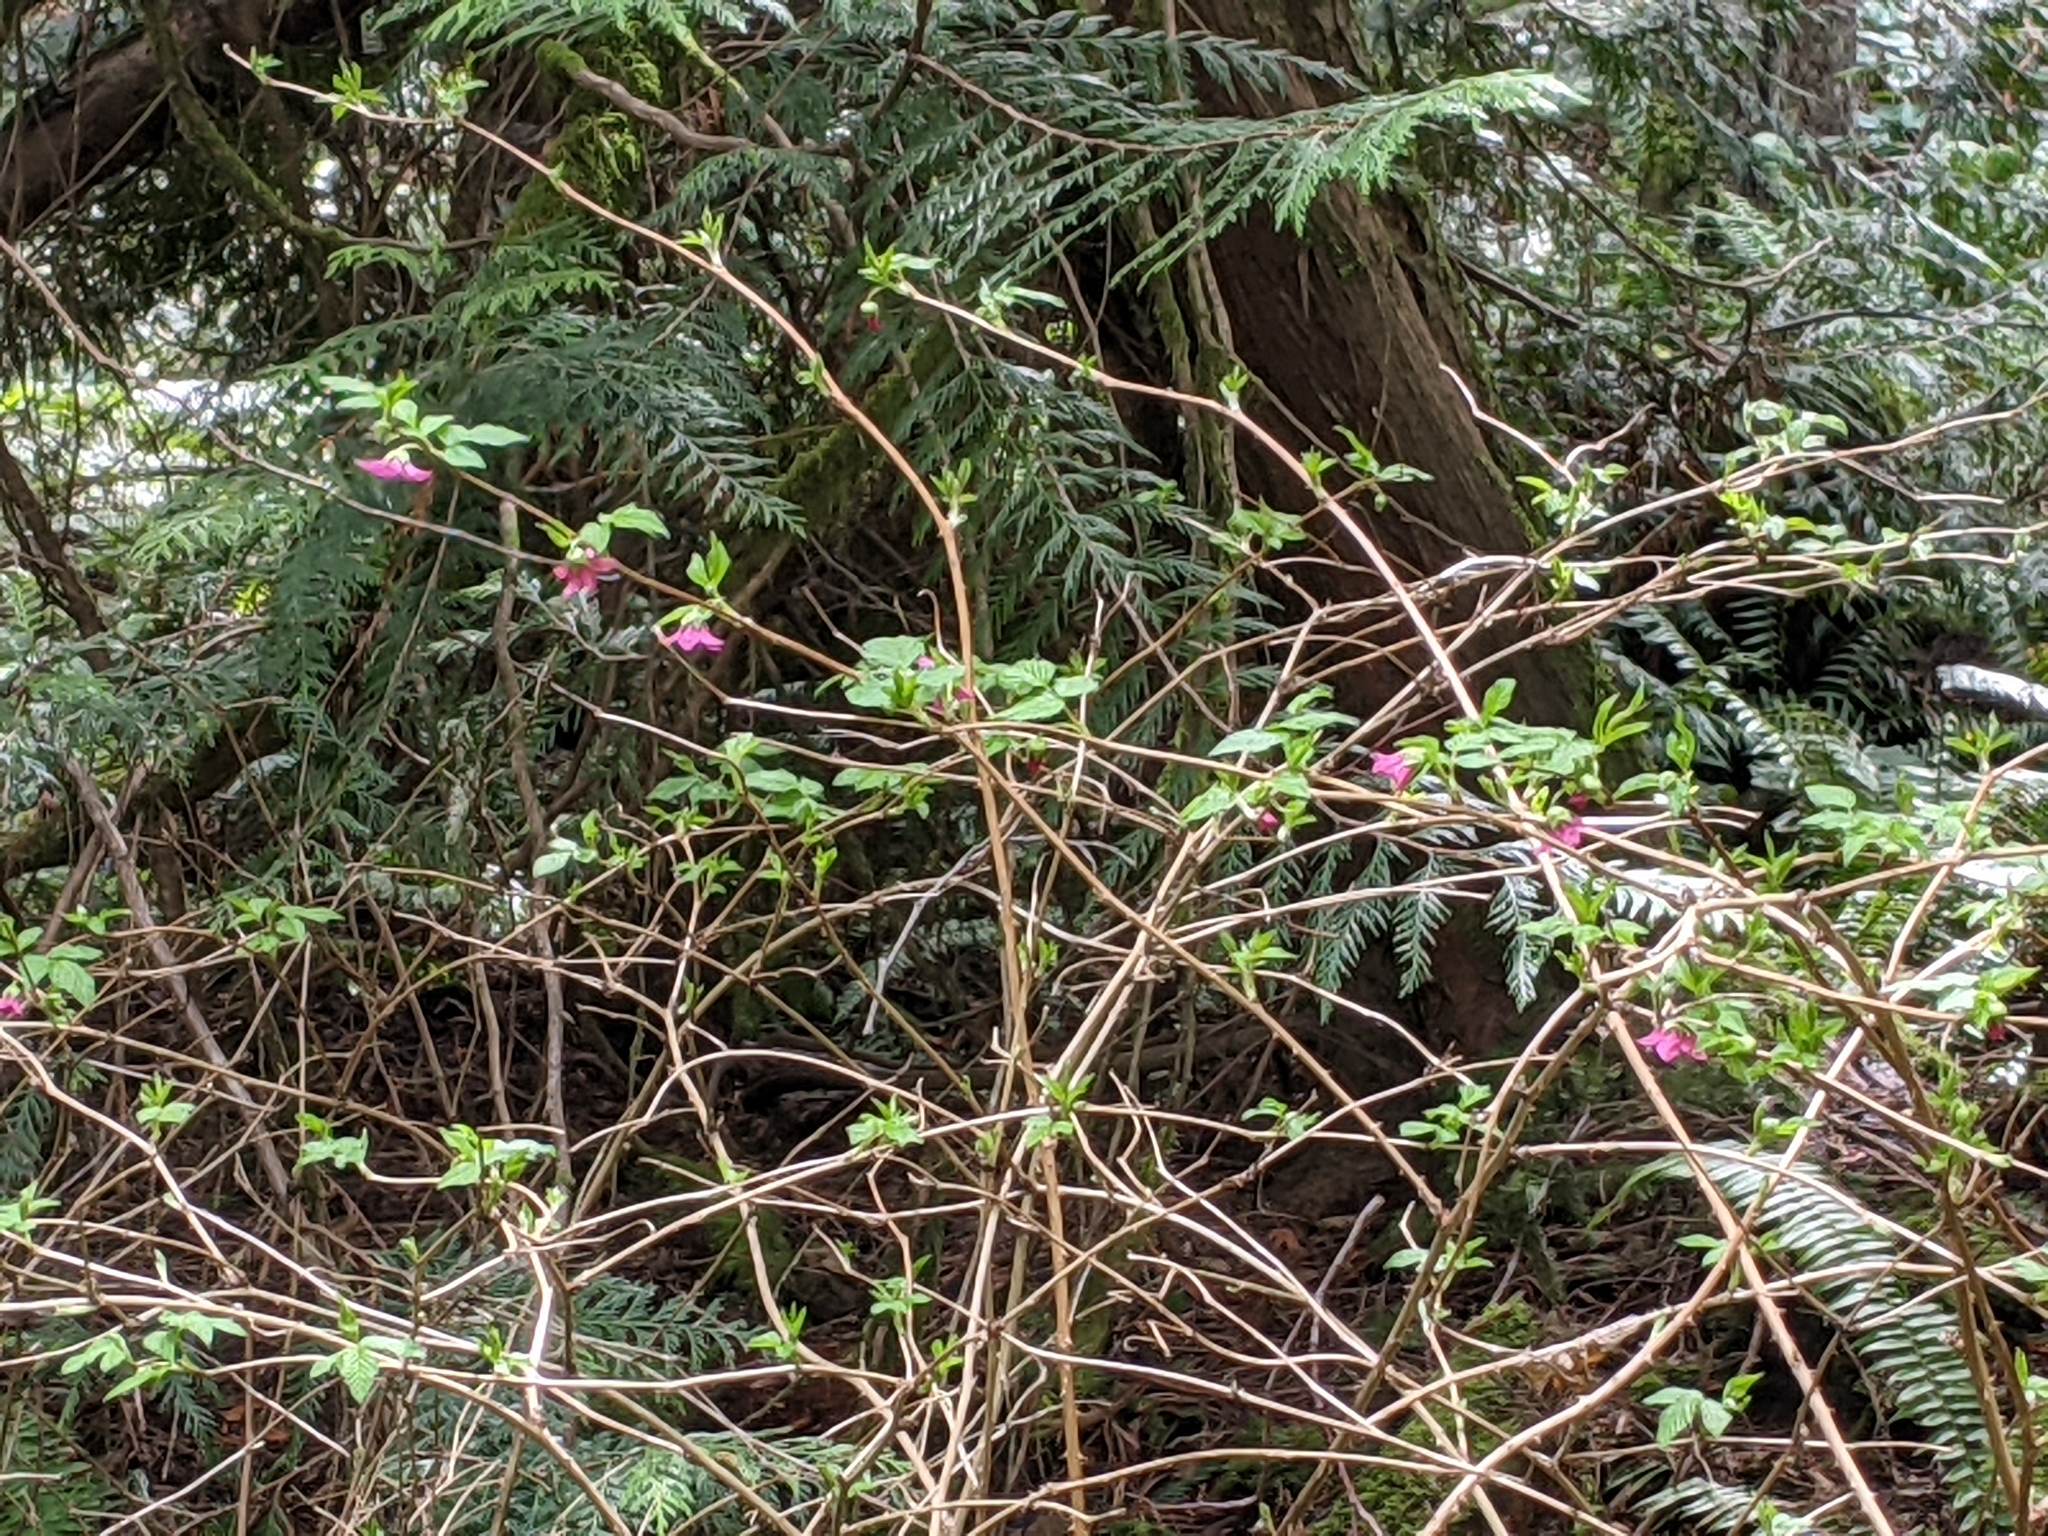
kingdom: Plantae
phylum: Tracheophyta
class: Magnoliopsida
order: Rosales
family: Rosaceae
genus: Rubus
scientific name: Rubus spectabilis
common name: Salmonberry
